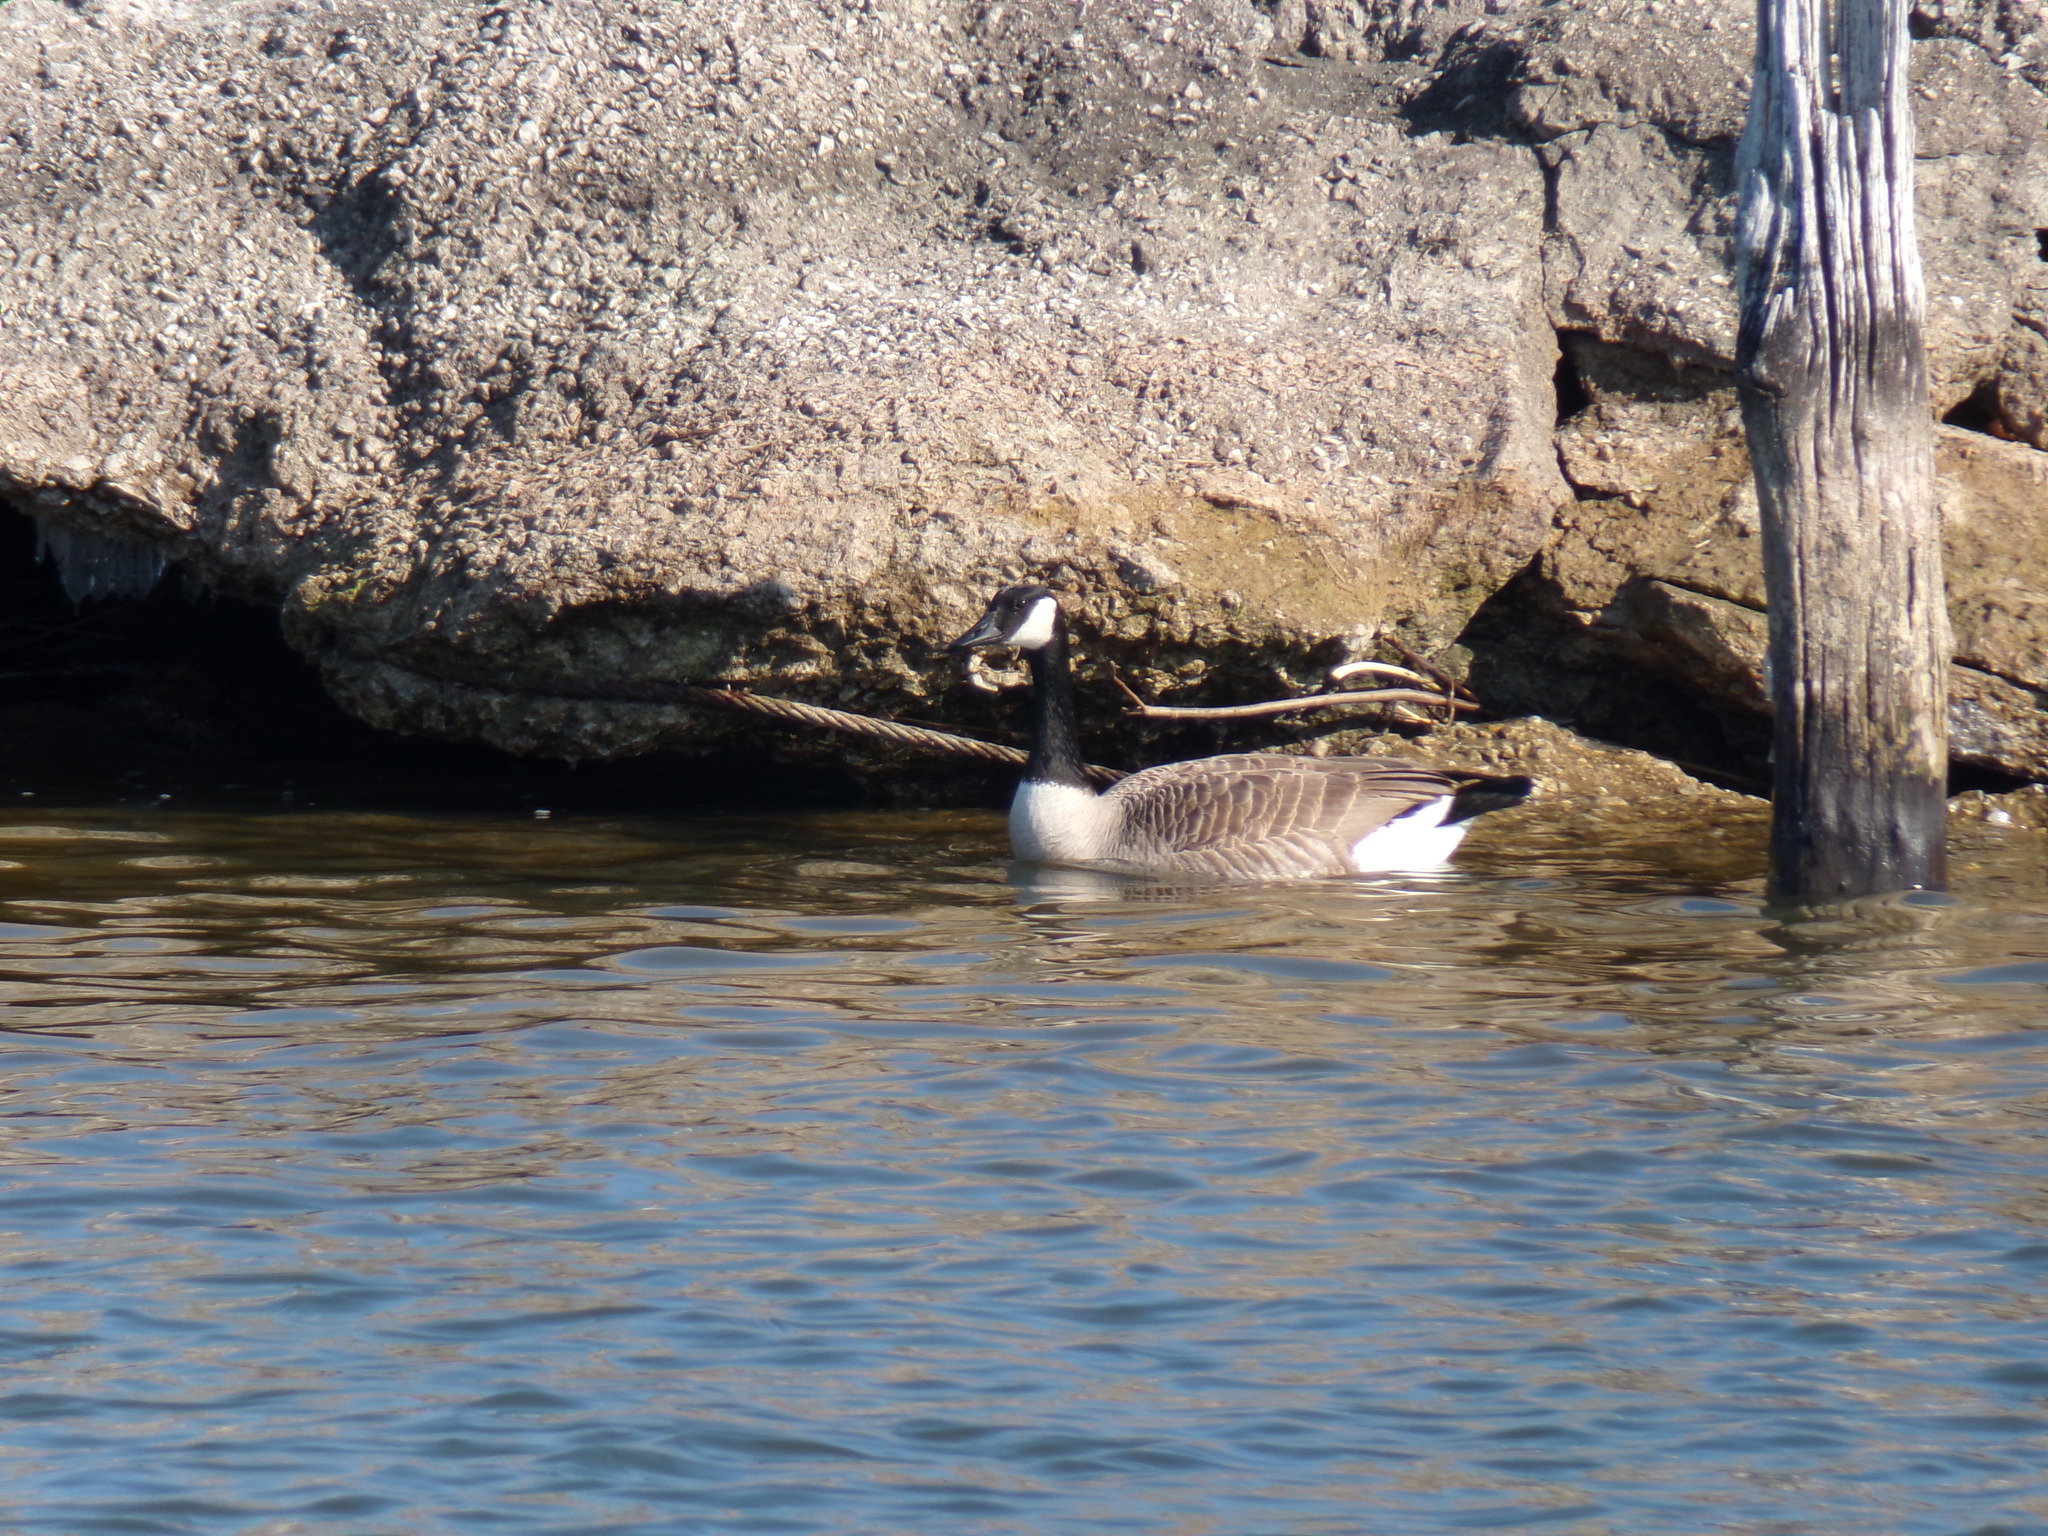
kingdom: Animalia
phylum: Chordata
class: Aves
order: Anseriformes
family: Anatidae
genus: Branta
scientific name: Branta canadensis
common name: Canada goose
